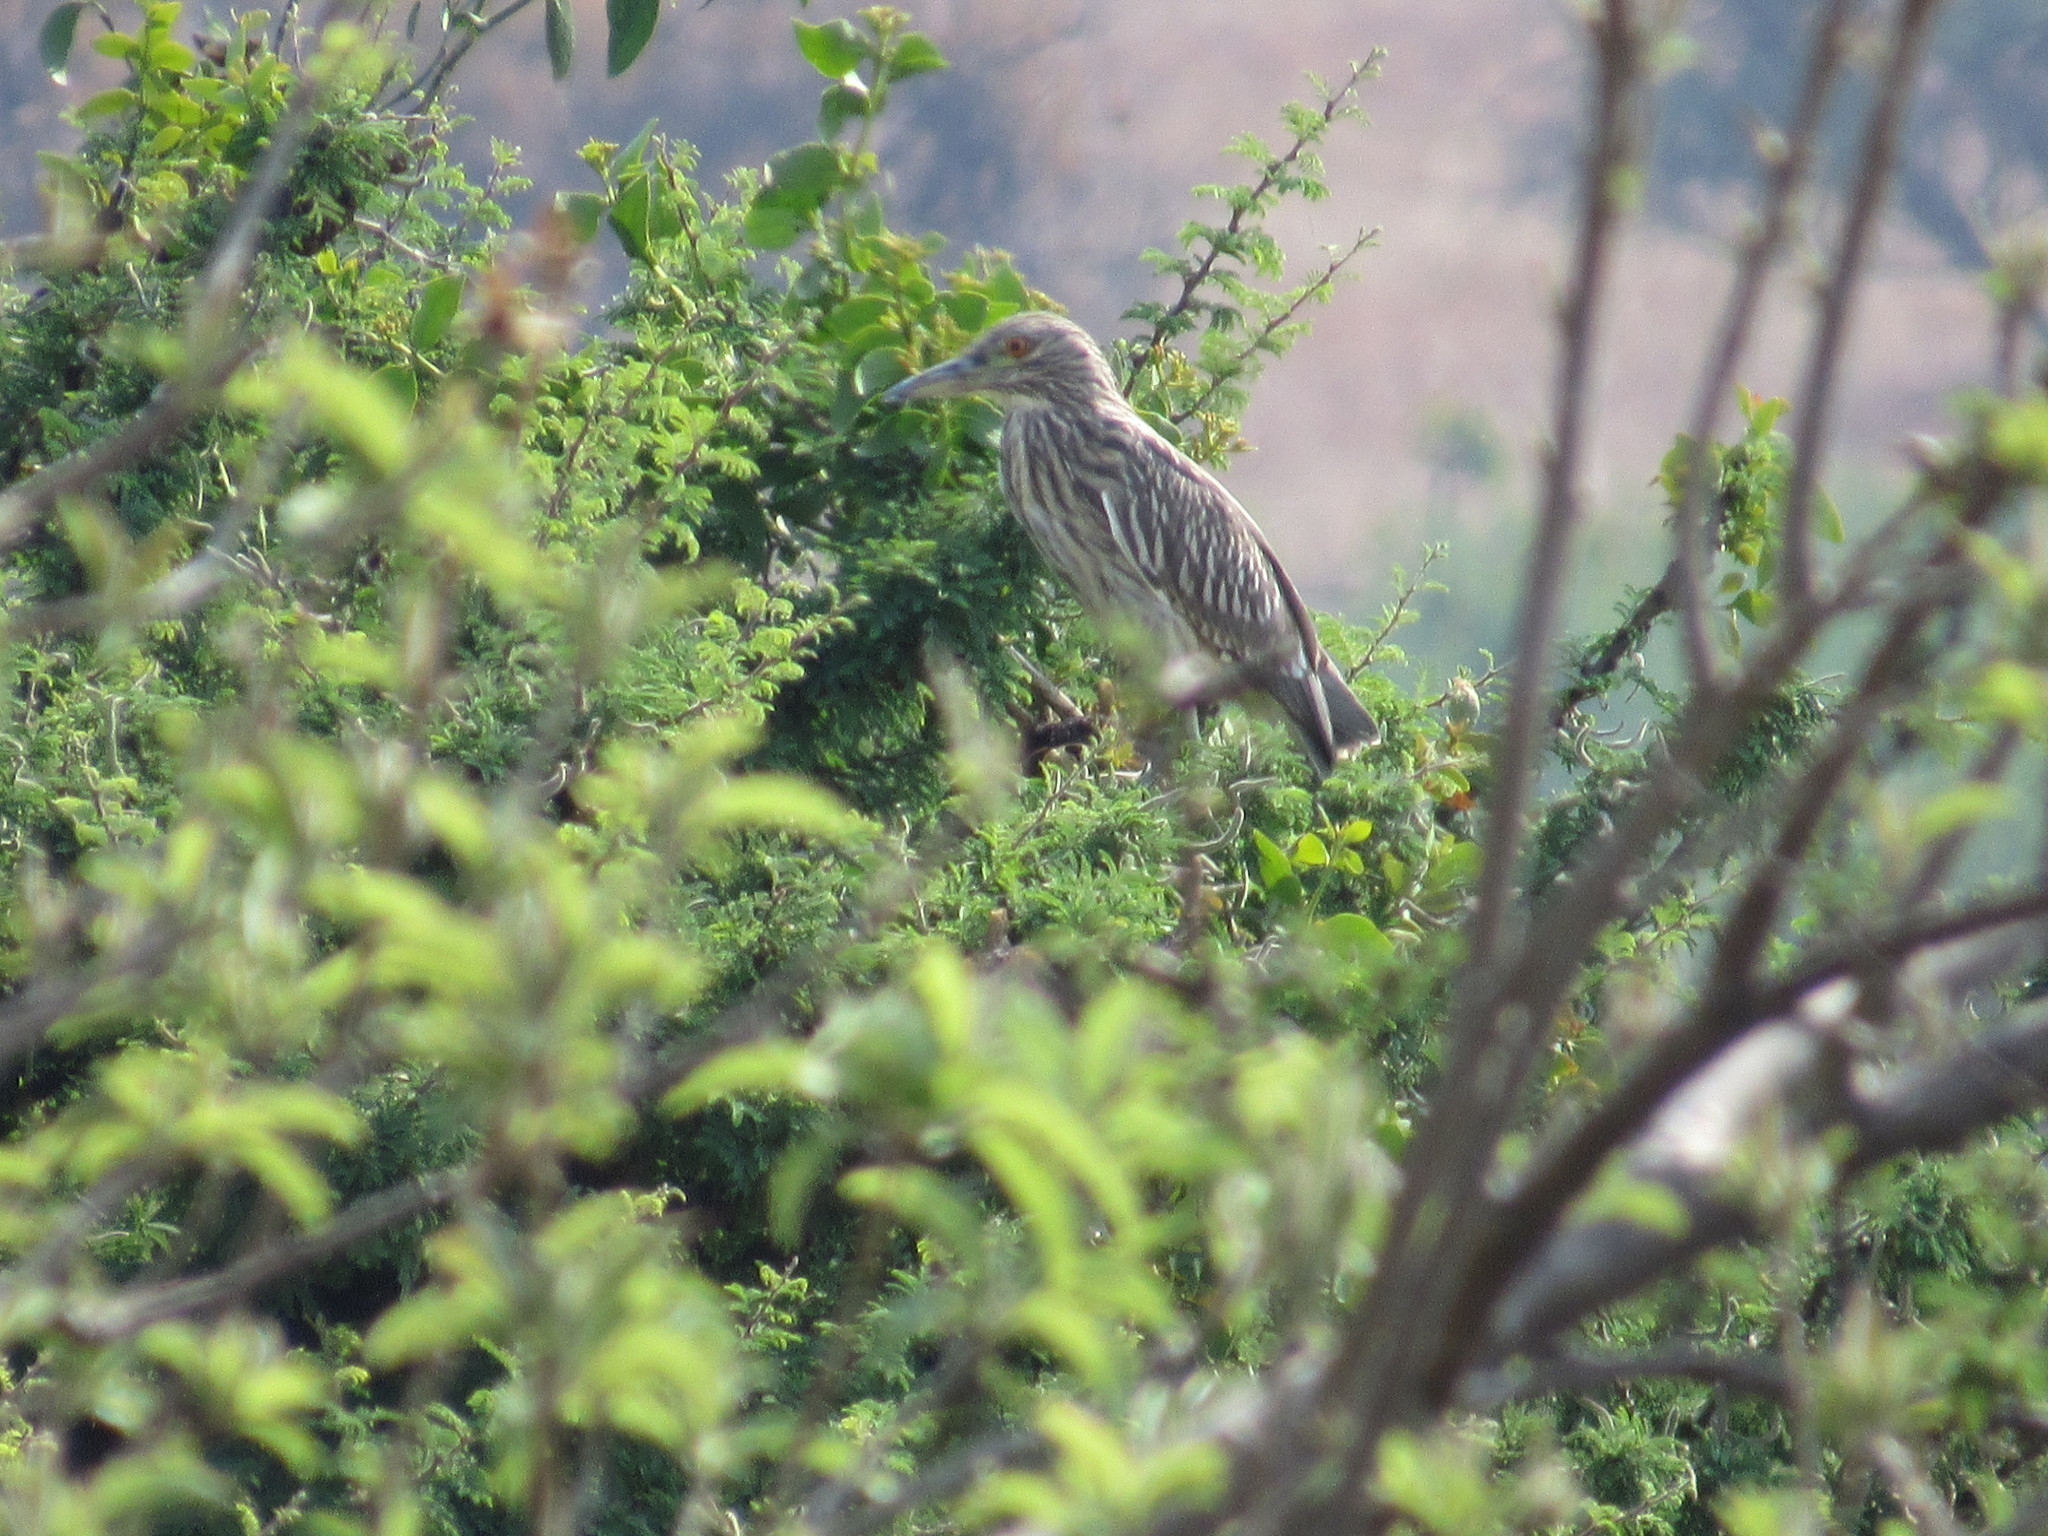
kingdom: Animalia
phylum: Chordata
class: Aves
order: Pelecaniformes
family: Ardeidae
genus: Nycticorax
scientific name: Nycticorax nycticorax
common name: Black-crowned night heron
